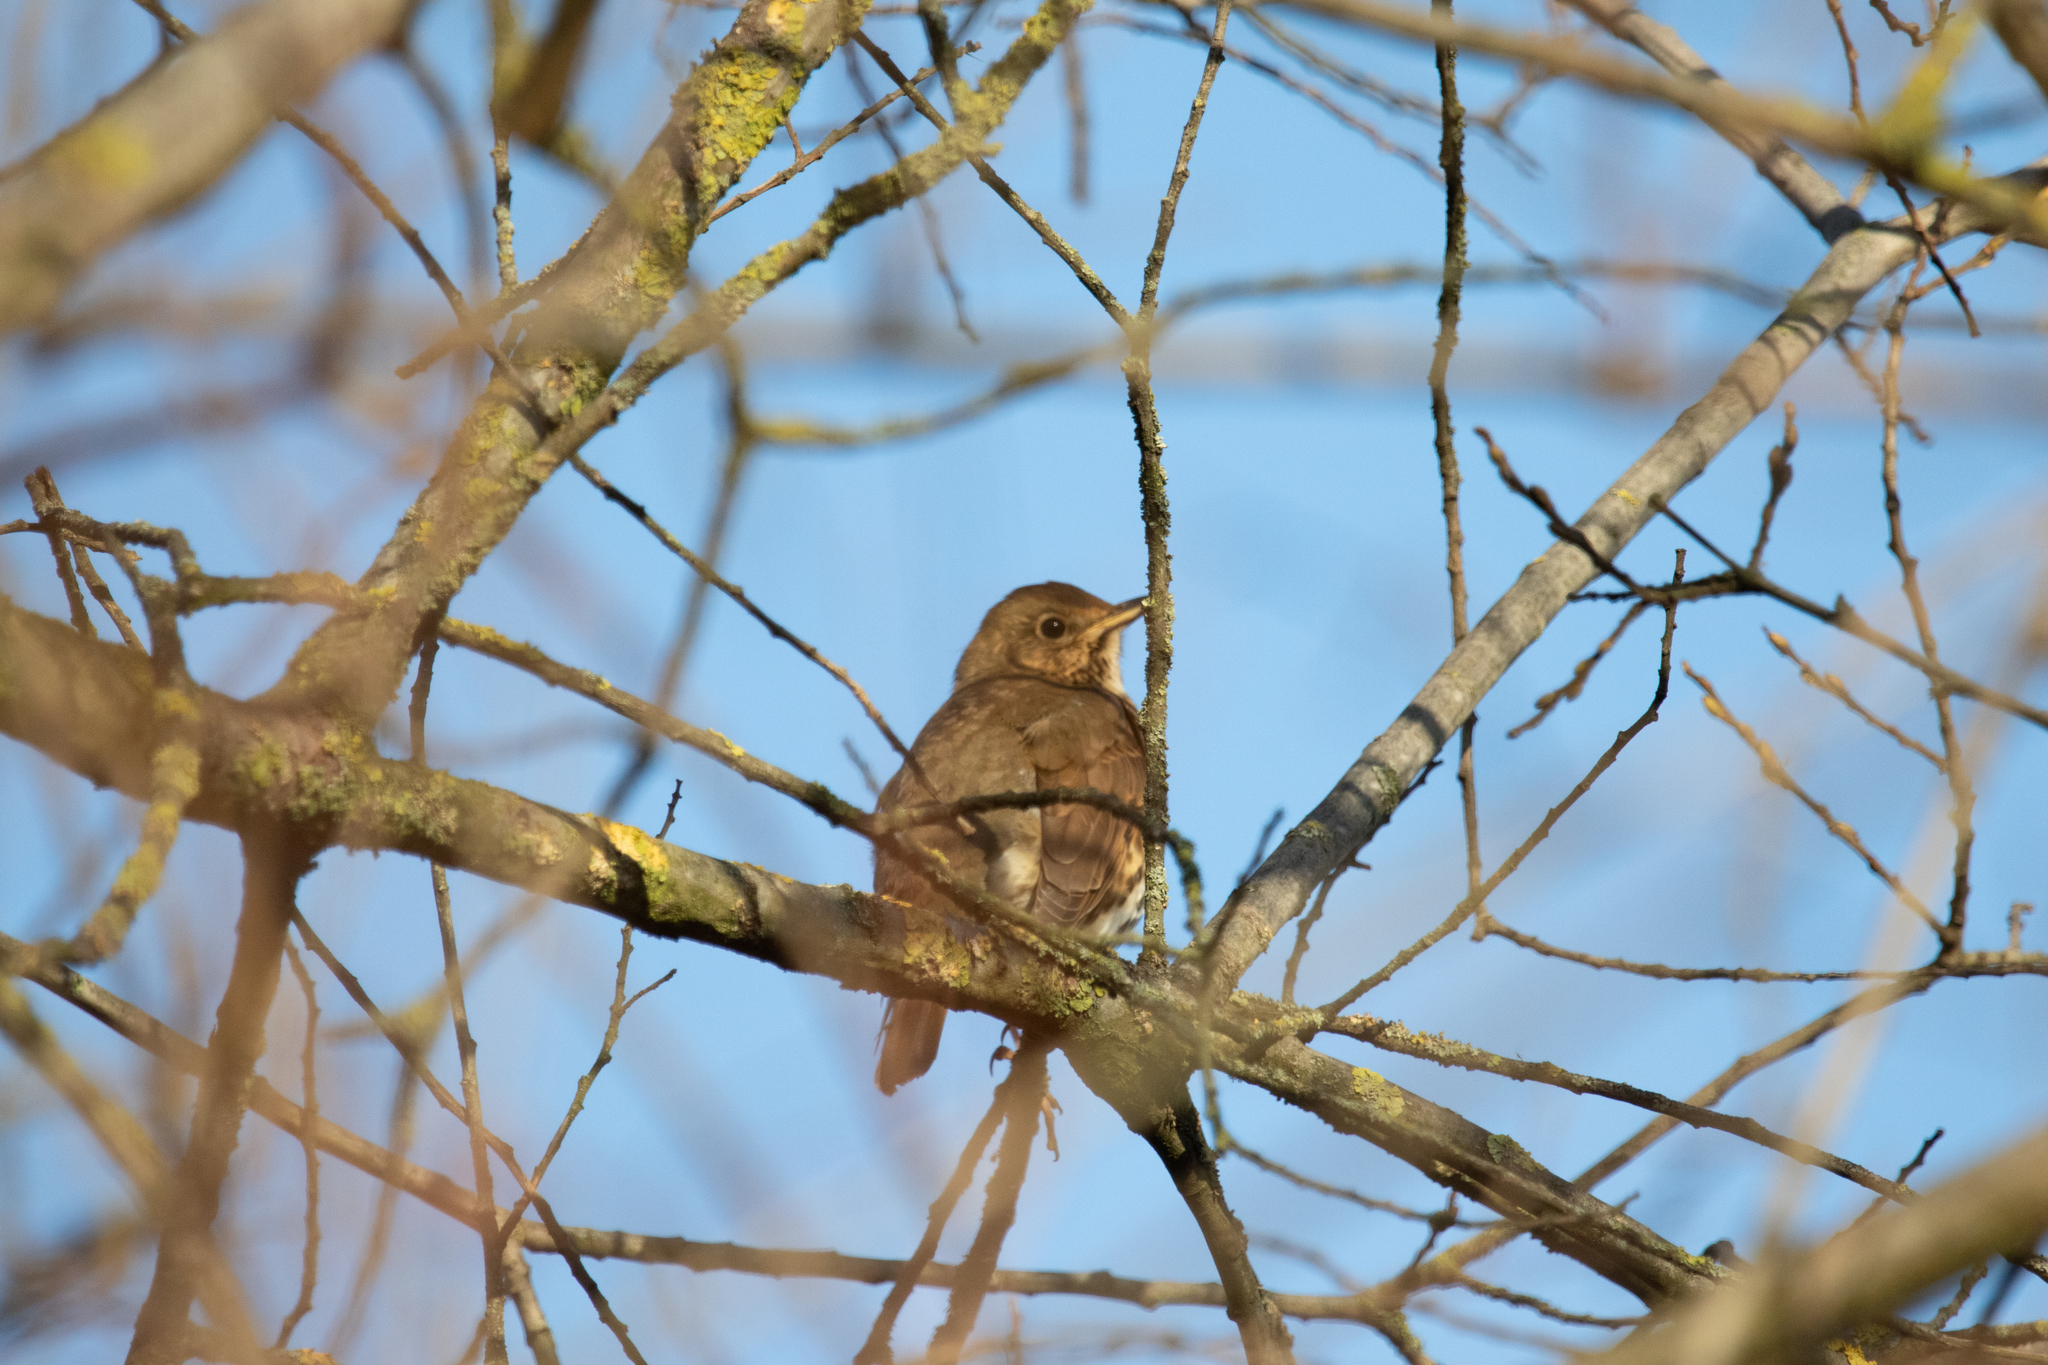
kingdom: Animalia
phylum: Chordata
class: Aves
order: Passeriformes
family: Turdidae
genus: Turdus
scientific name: Turdus philomelos
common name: Song thrush
